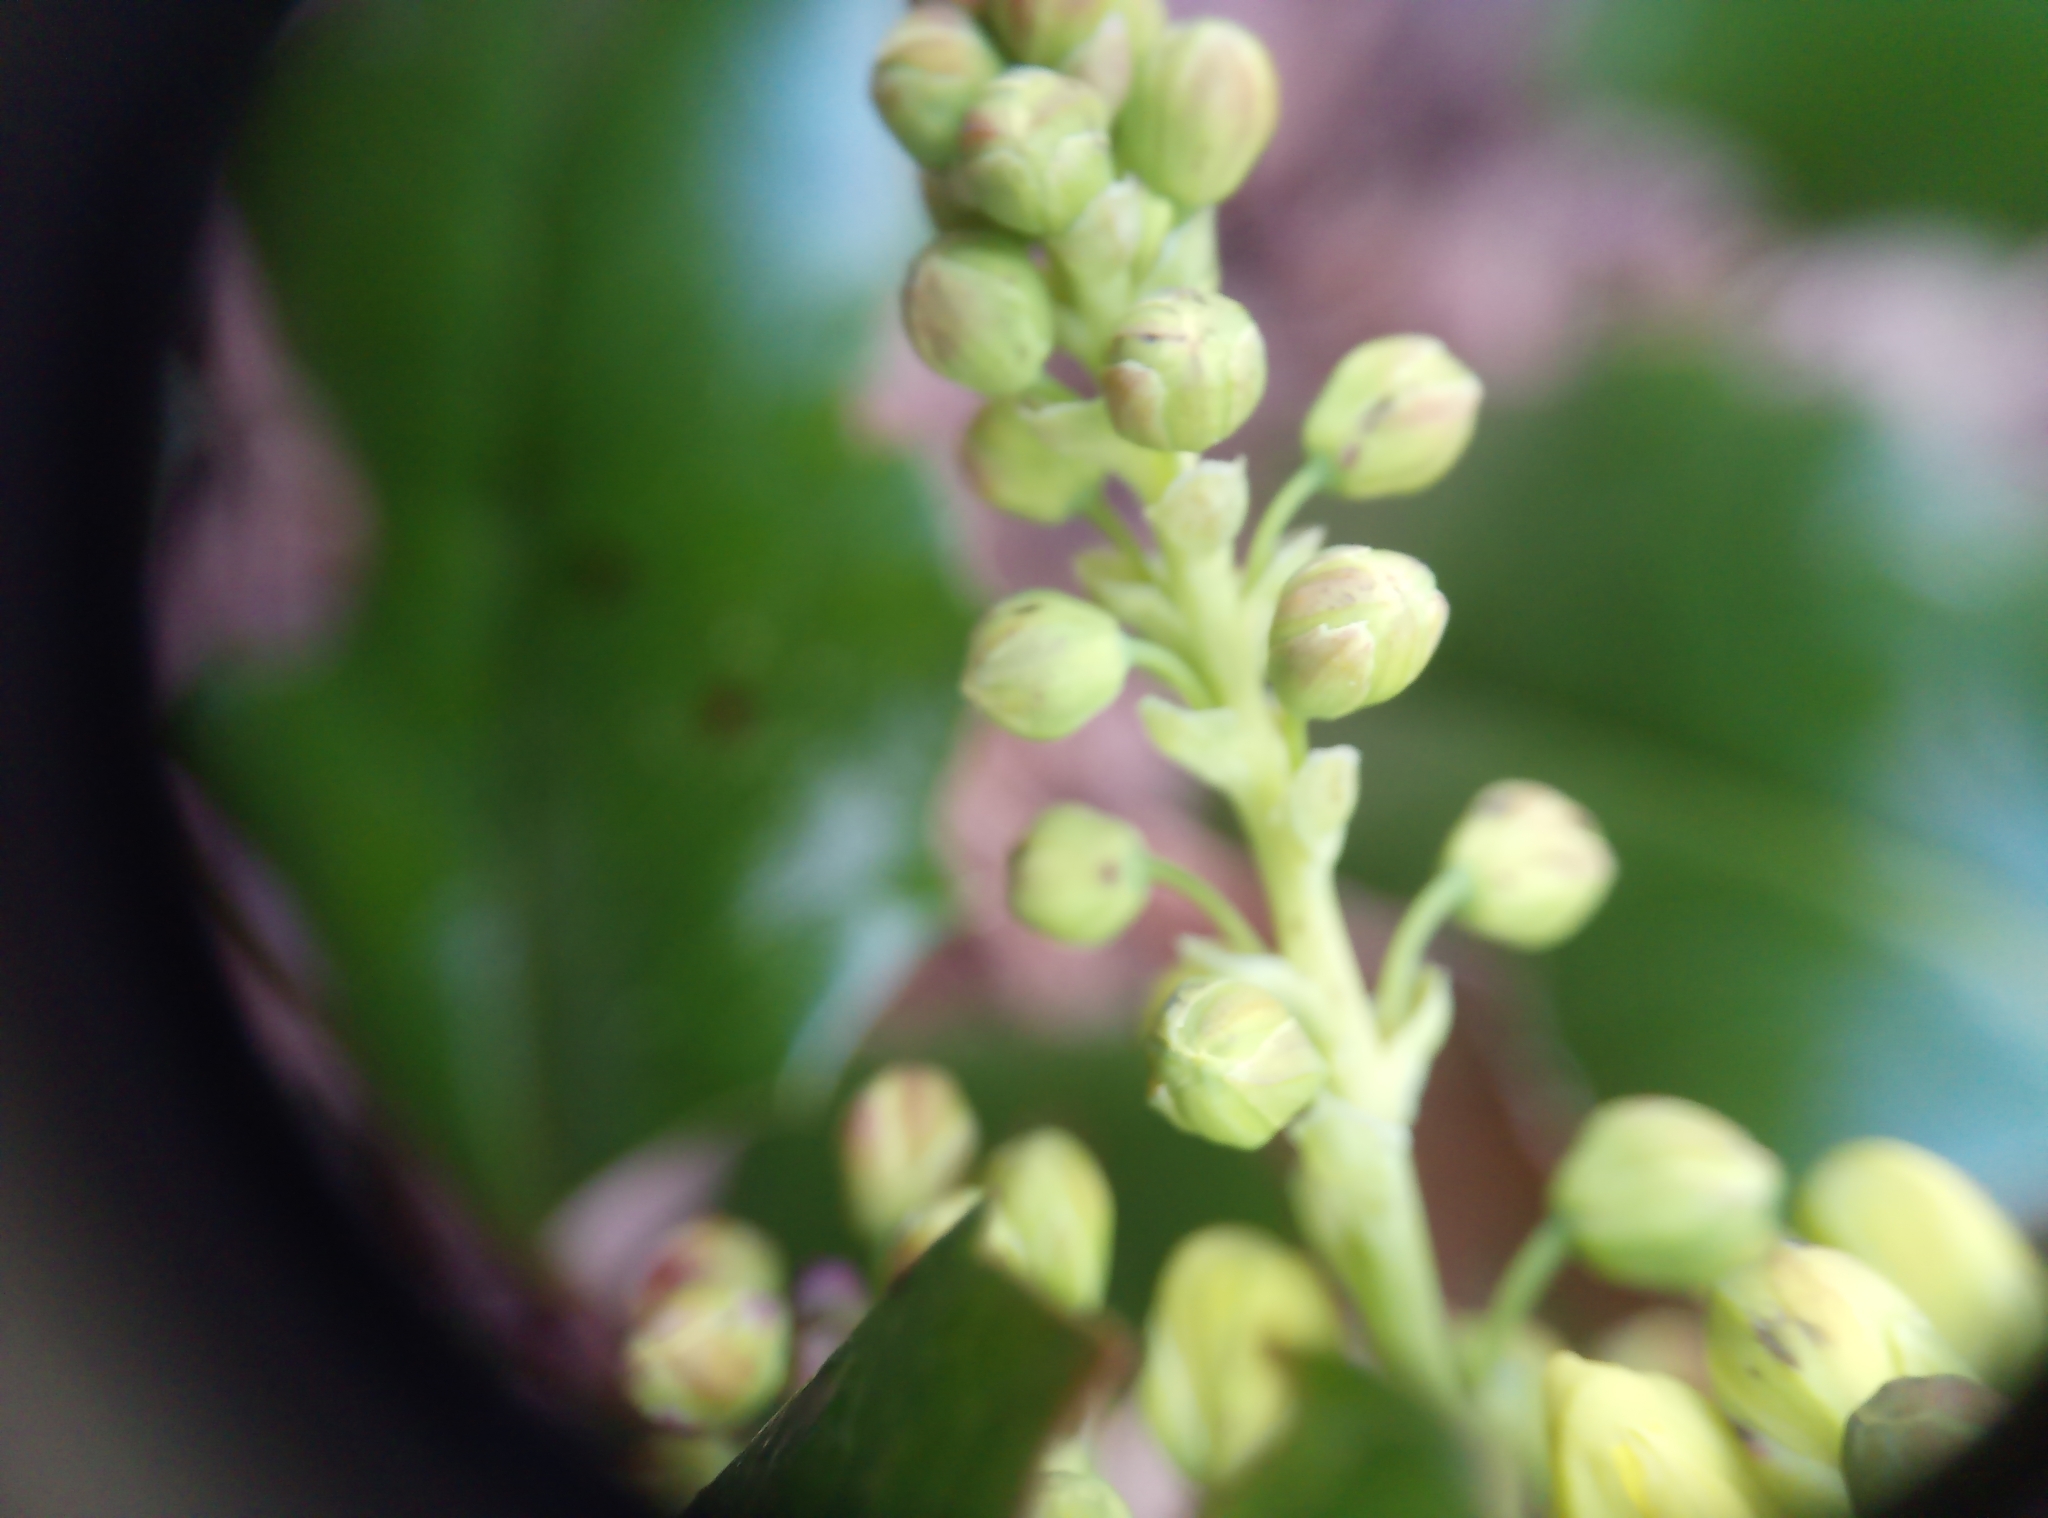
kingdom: Plantae
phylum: Tracheophyta
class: Magnoliopsida
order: Ranunculales
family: Berberidaceae
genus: Mahonia
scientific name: Mahonia aquifolium
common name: Oregon-grape
